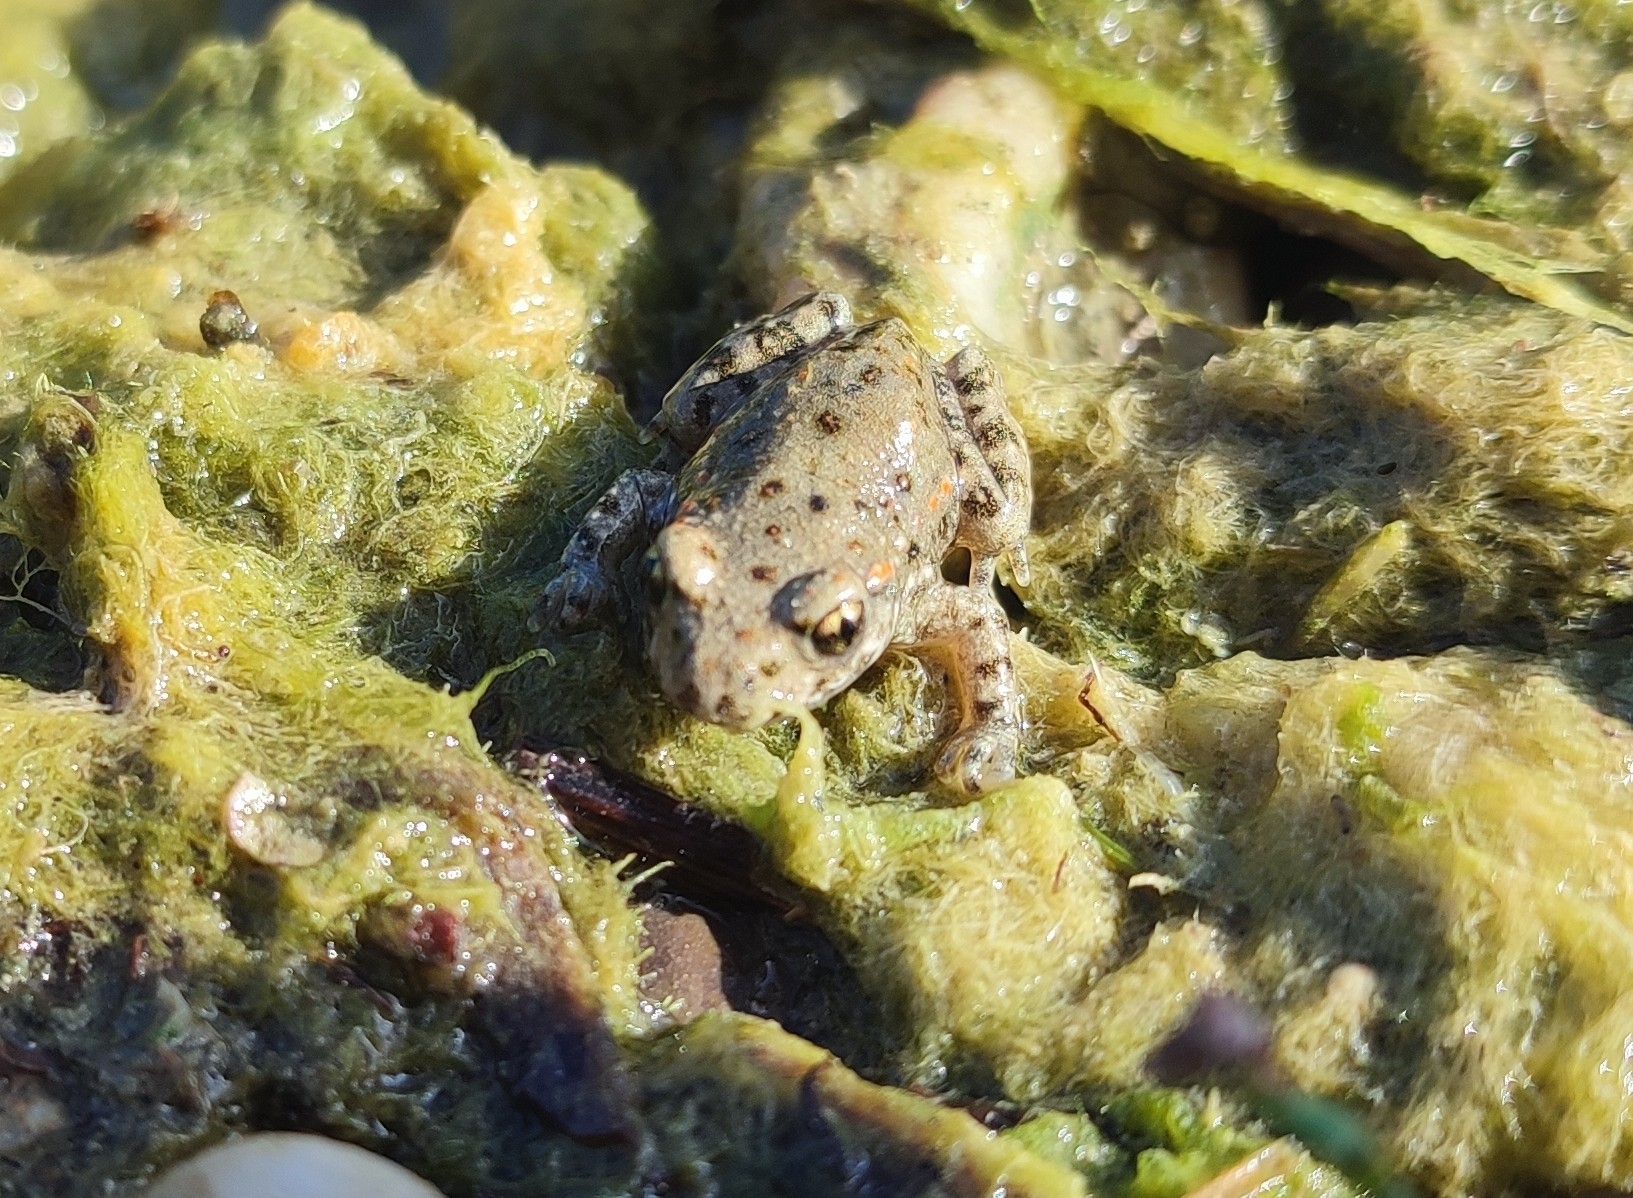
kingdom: Animalia
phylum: Chordata
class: Amphibia
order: Anura
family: Alytidae
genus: Alytes
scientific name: Alytes obstetricans
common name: Midwife toad
